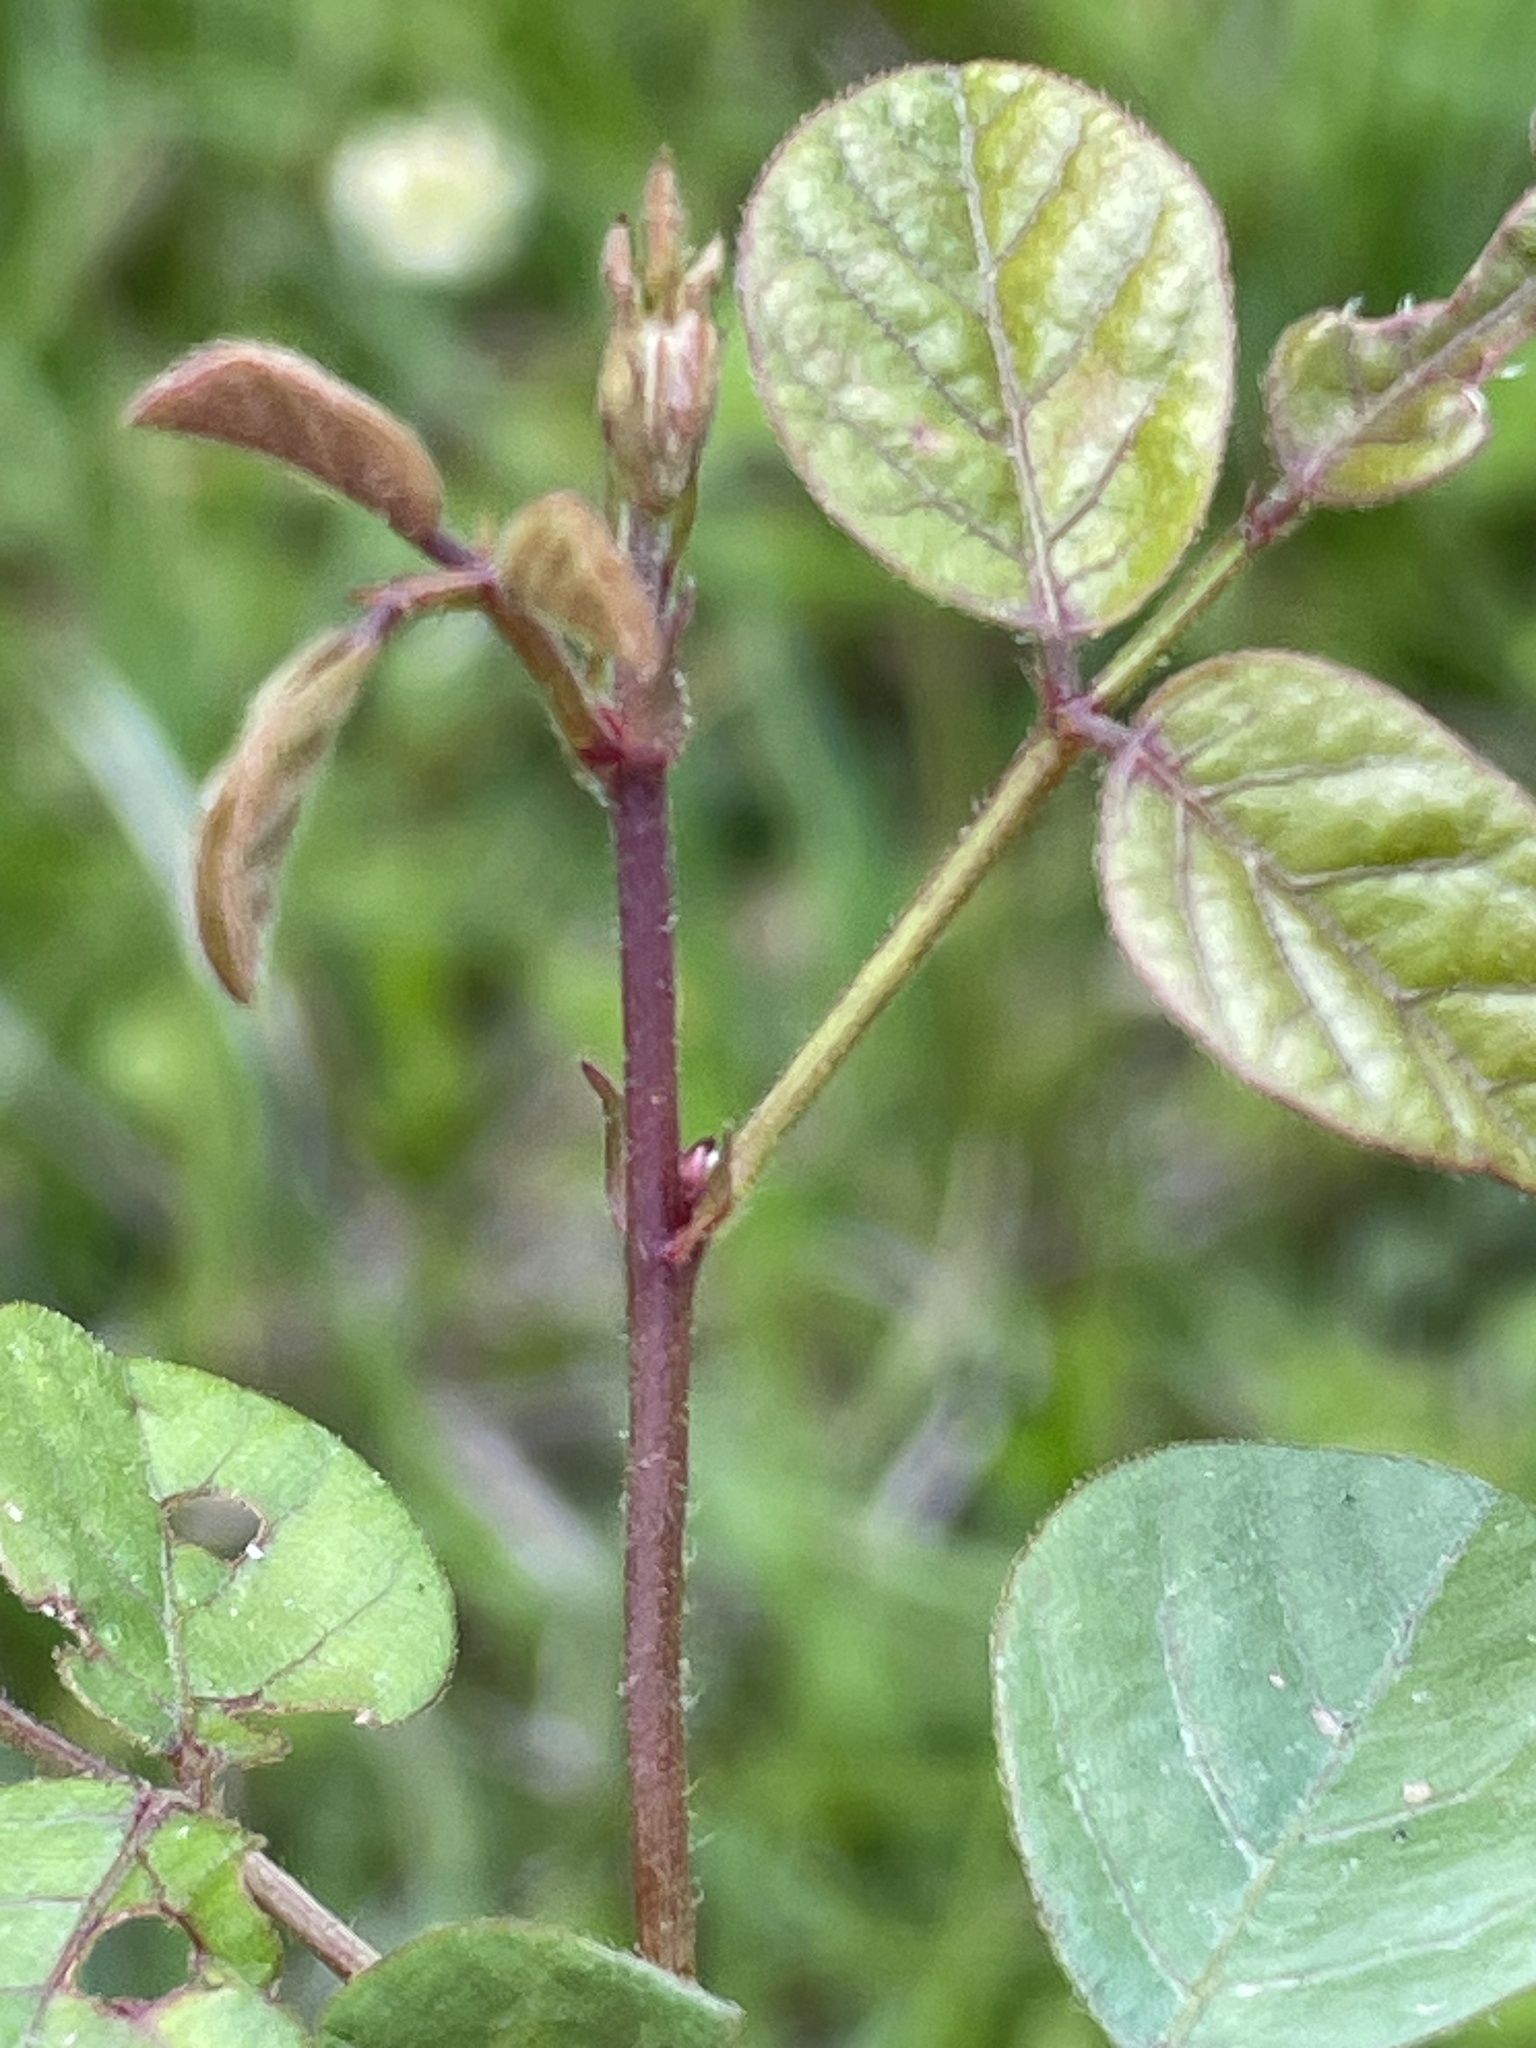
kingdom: Plantae
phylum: Tracheophyta
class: Magnoliopsida
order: Fabales
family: Fabaceae
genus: Desmodium
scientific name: Desmodium lineatum
